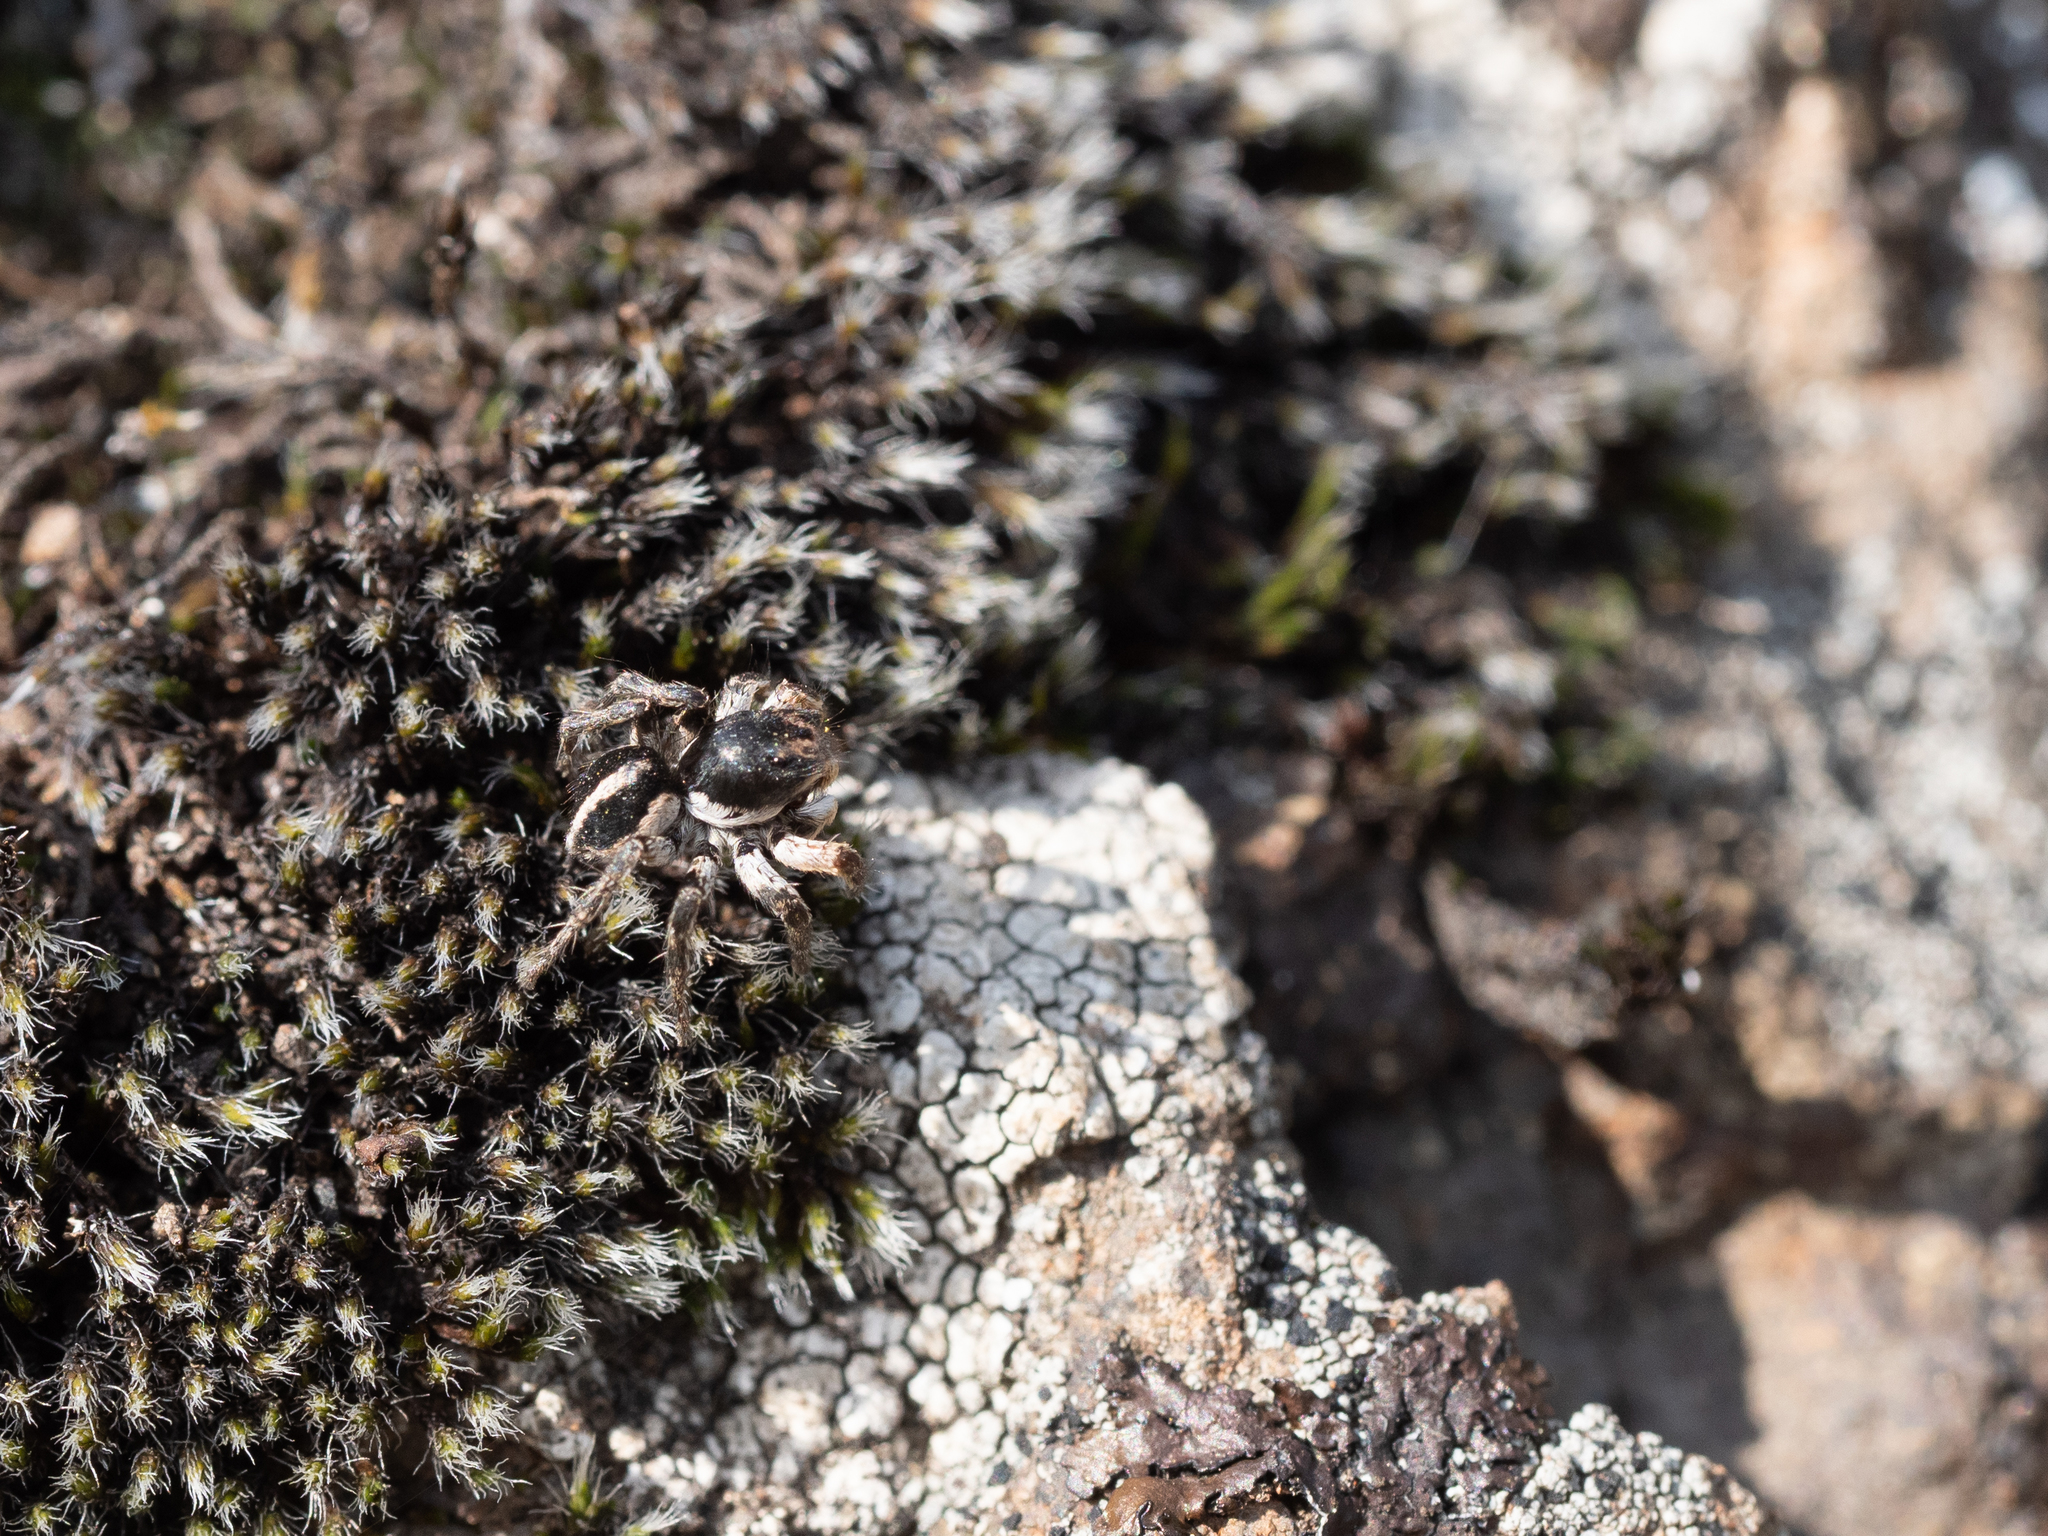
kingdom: Animalia
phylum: Arthropoda
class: Arachnida
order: Araneae
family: Salticidae
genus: Aelurillus
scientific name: Aelurillus v-insignitus
